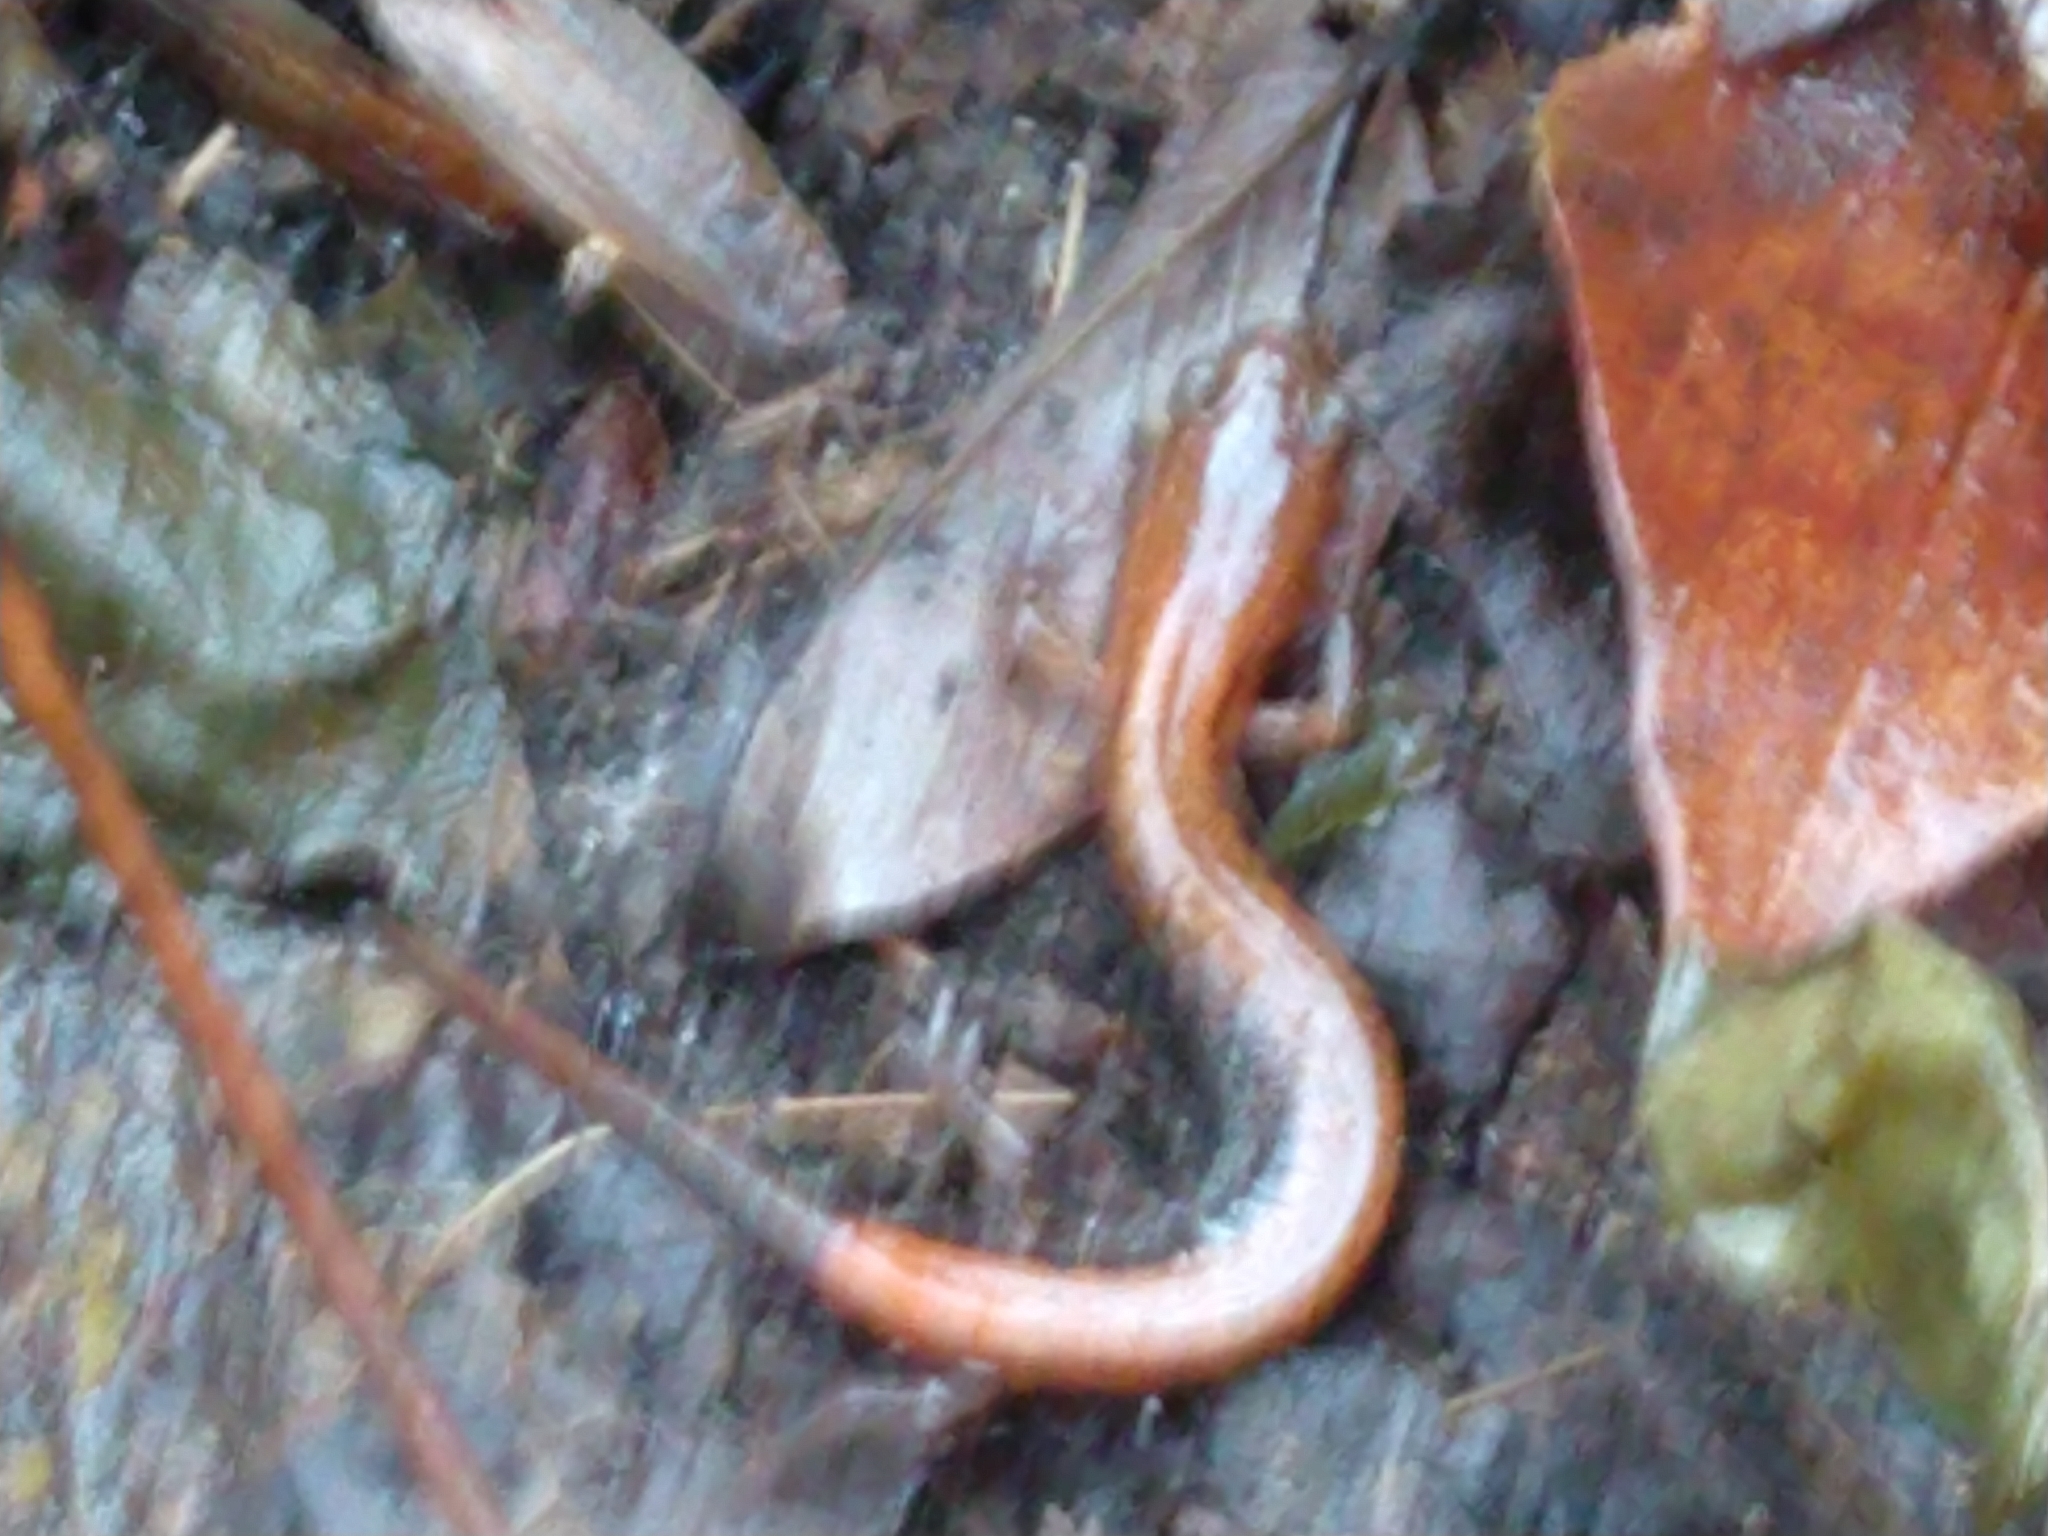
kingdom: Animalia
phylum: Chordata
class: Amphibia
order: Caudata
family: Plethodontidae
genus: Plethodon
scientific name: Plethodon cinereus
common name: Redback salamander
